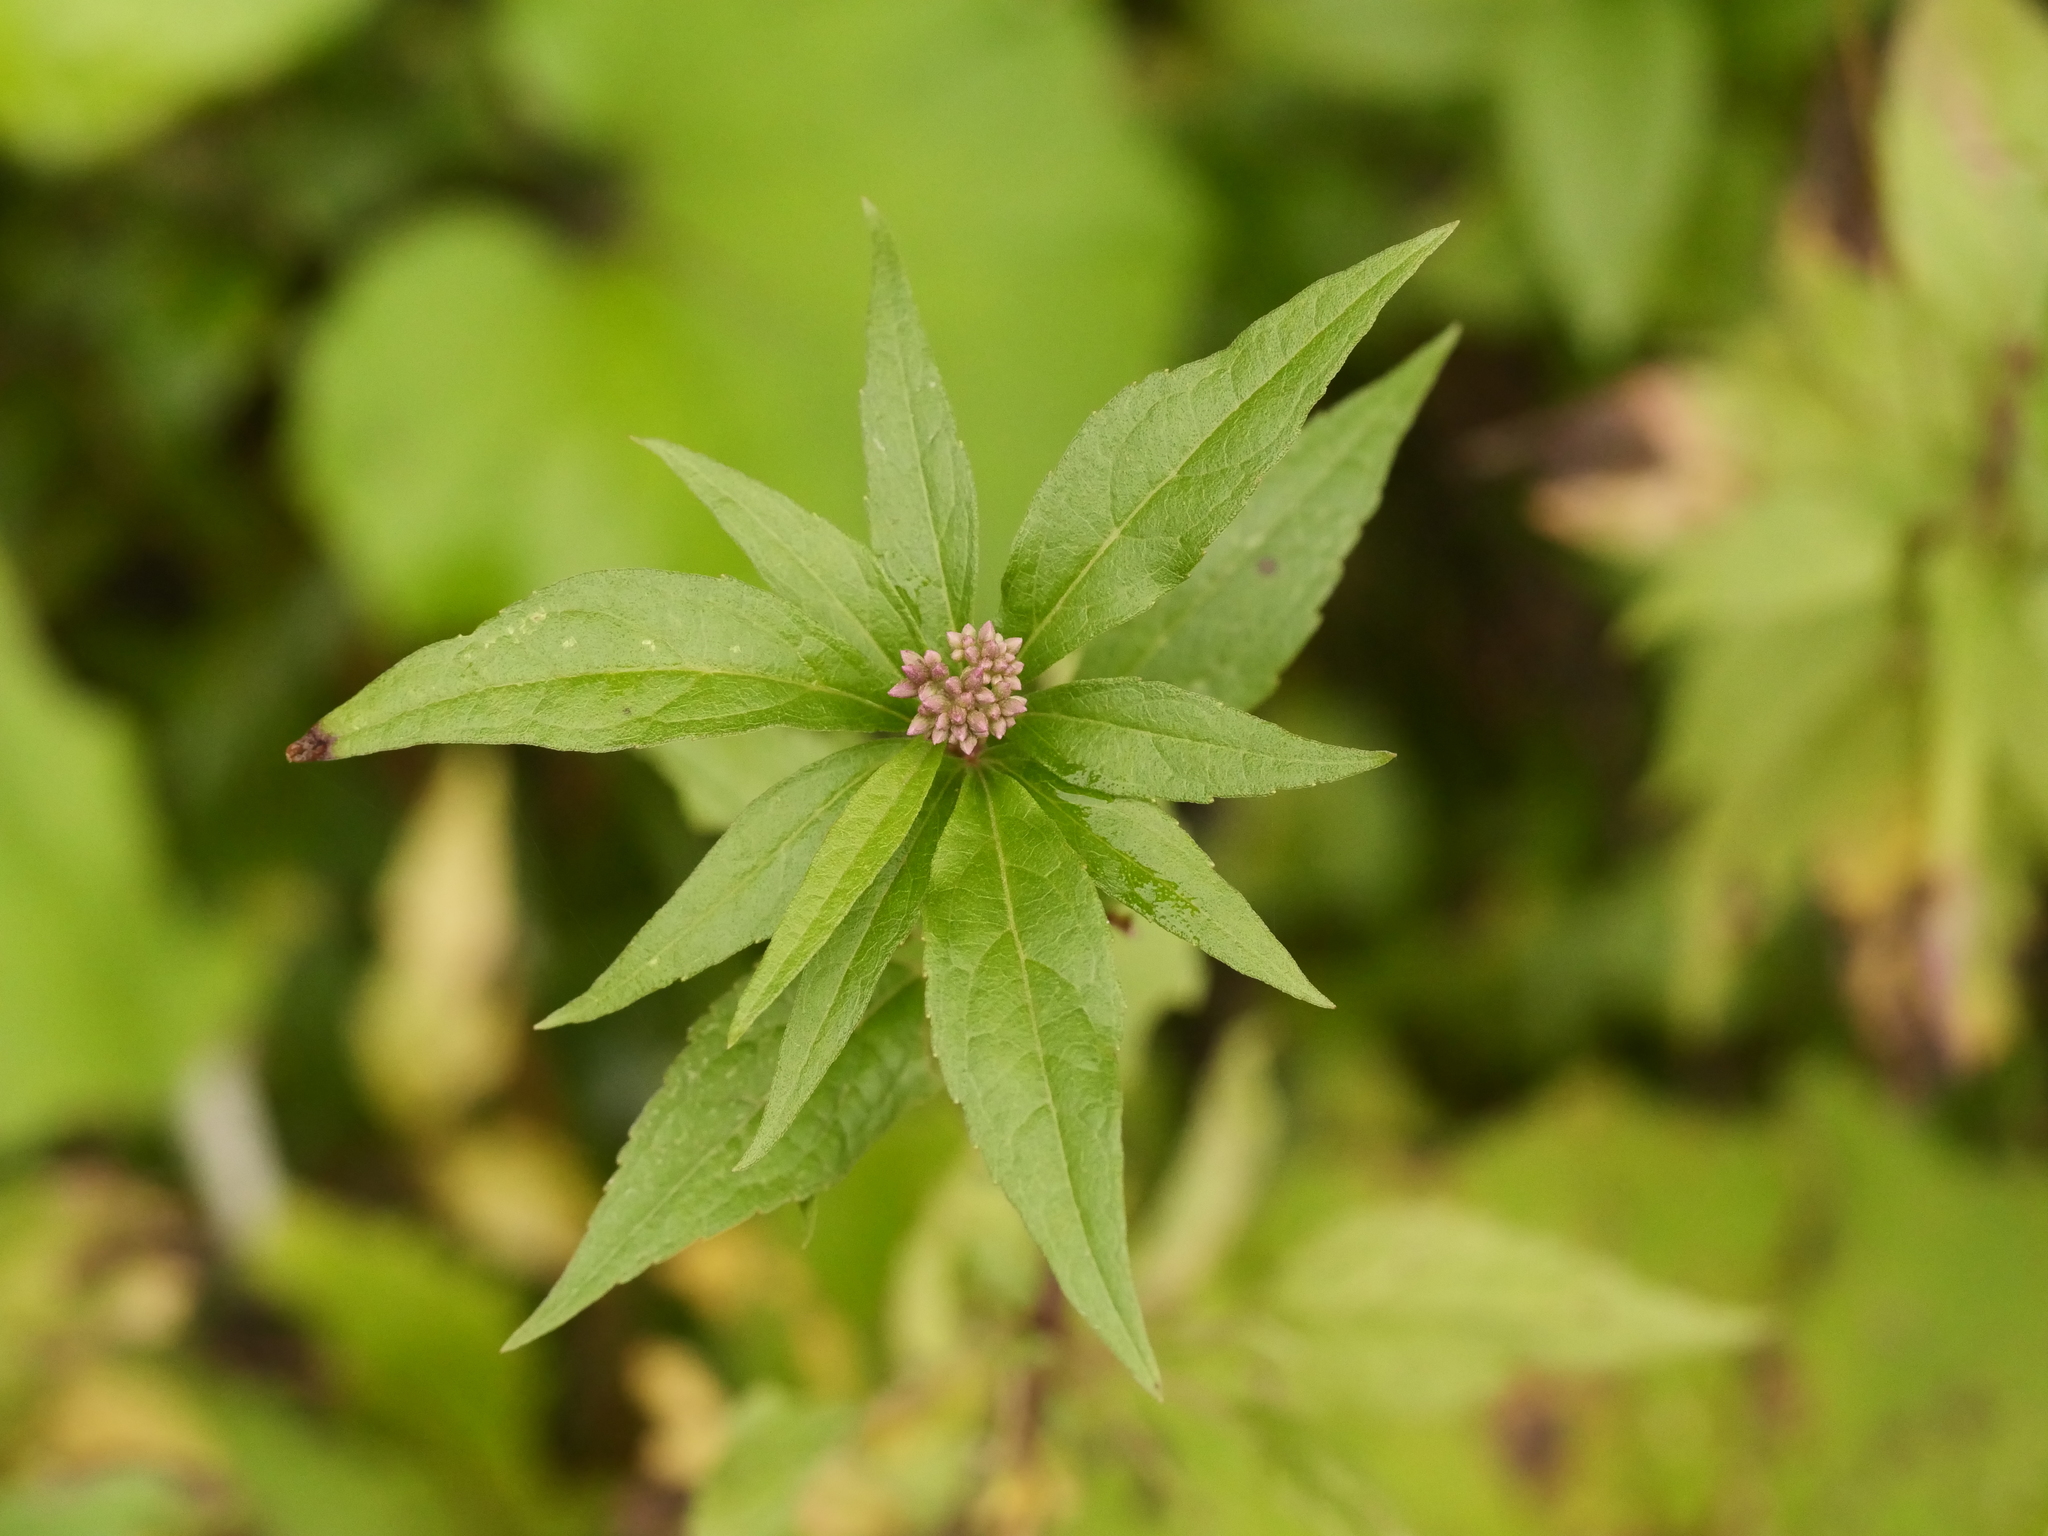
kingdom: Plantae
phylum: Tracheophyta
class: Magnoliopsida
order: Asterales
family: Asteraceae
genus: Eupatorium
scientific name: Eupatorium cannabinum
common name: Hemp-agrimony
